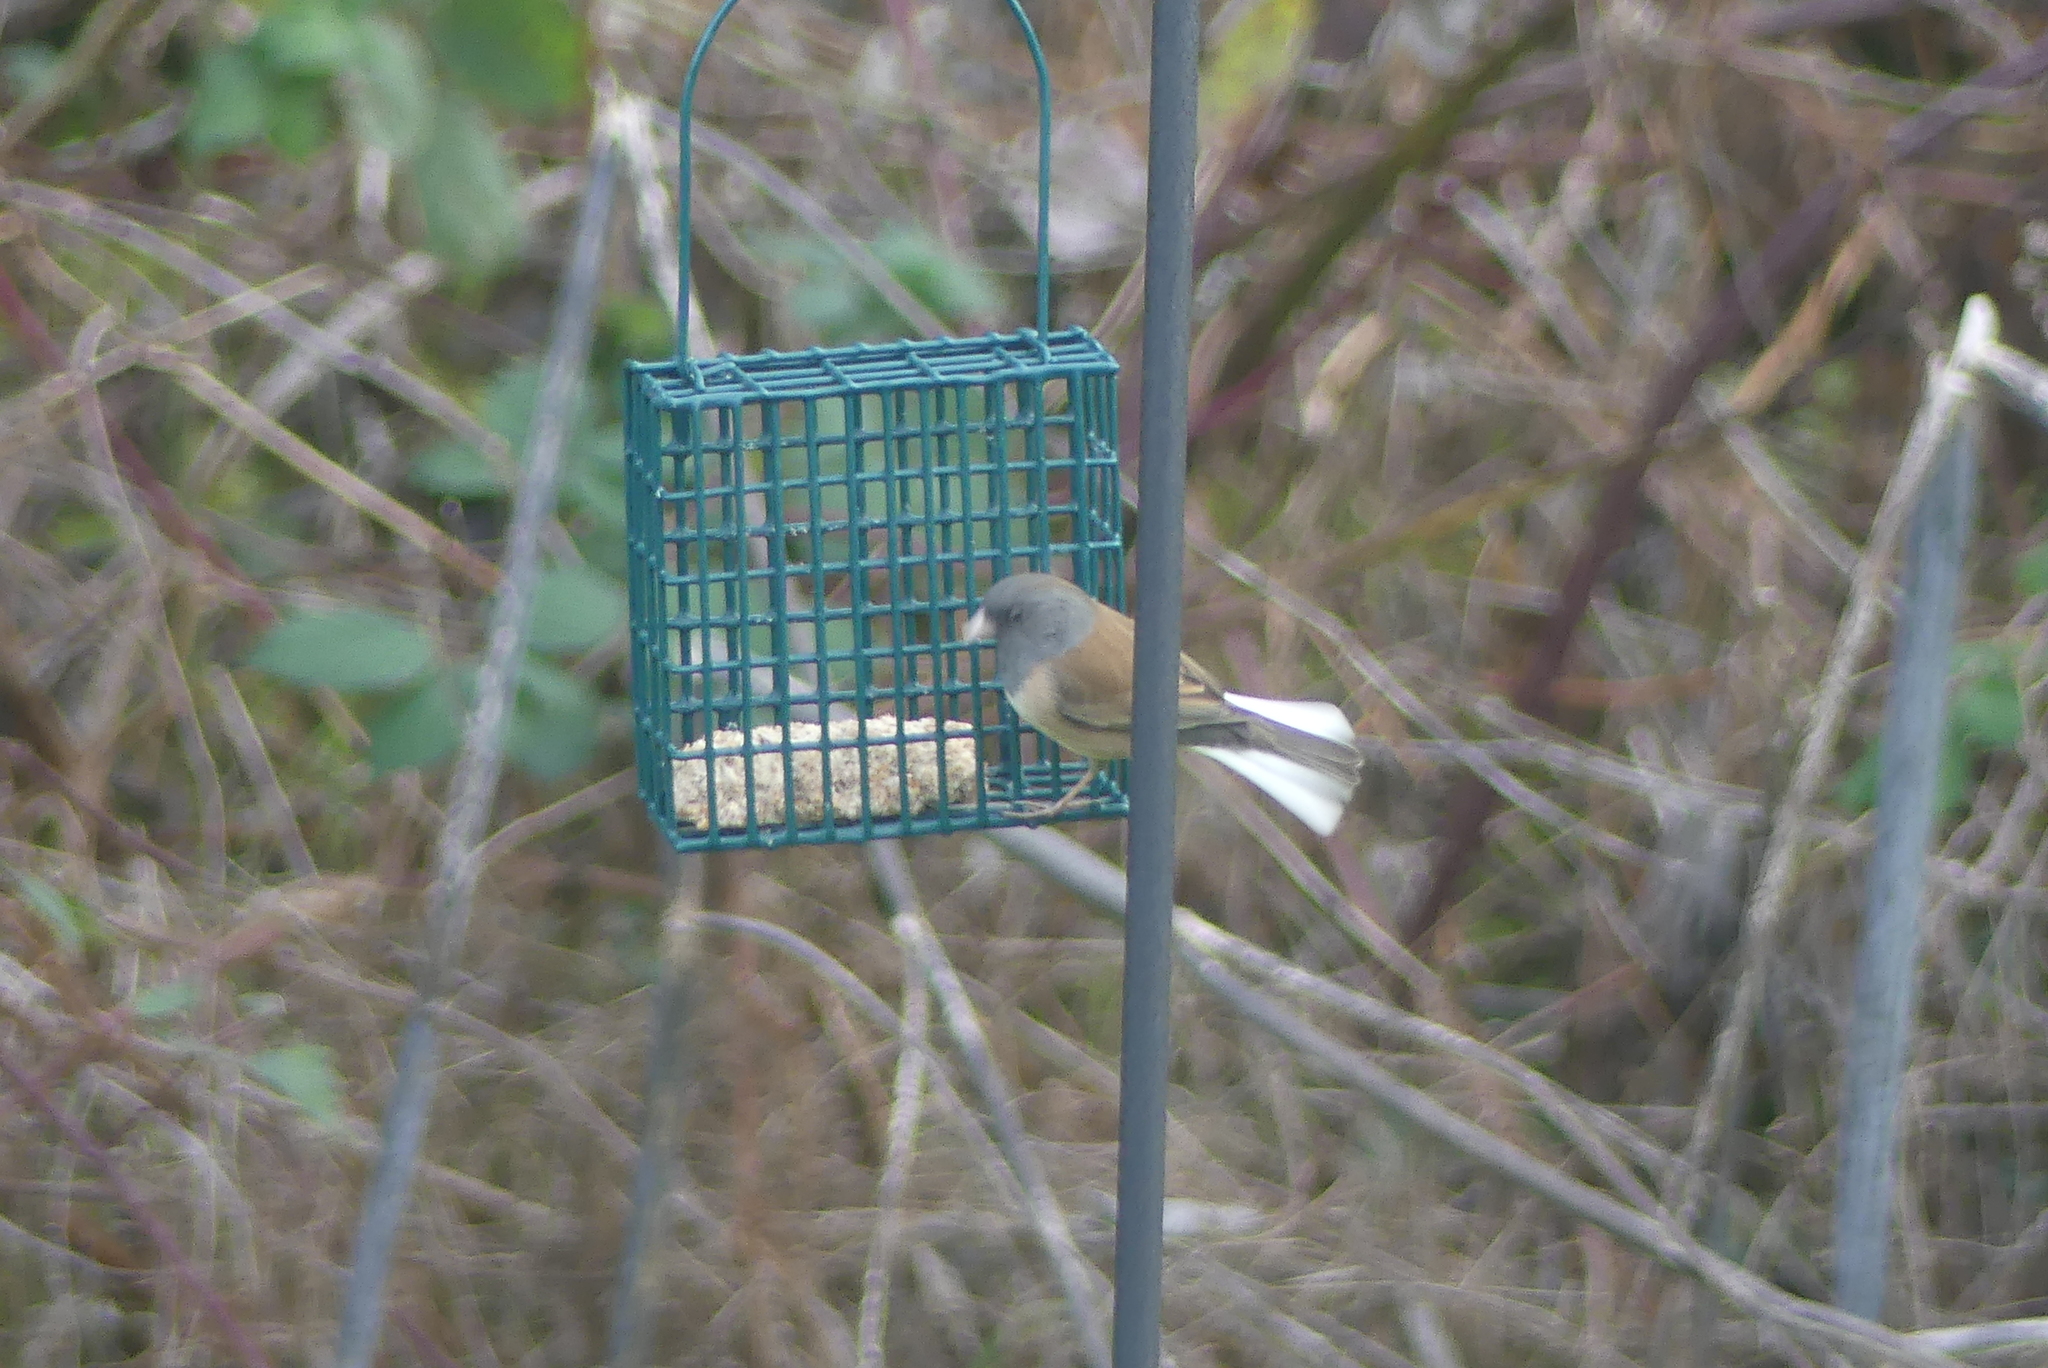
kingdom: Animalia
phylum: Chordata
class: Aves
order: Passeriformes
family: Passerellidae
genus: Junco
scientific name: Junco hyemalis
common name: Dark-eyed junco
